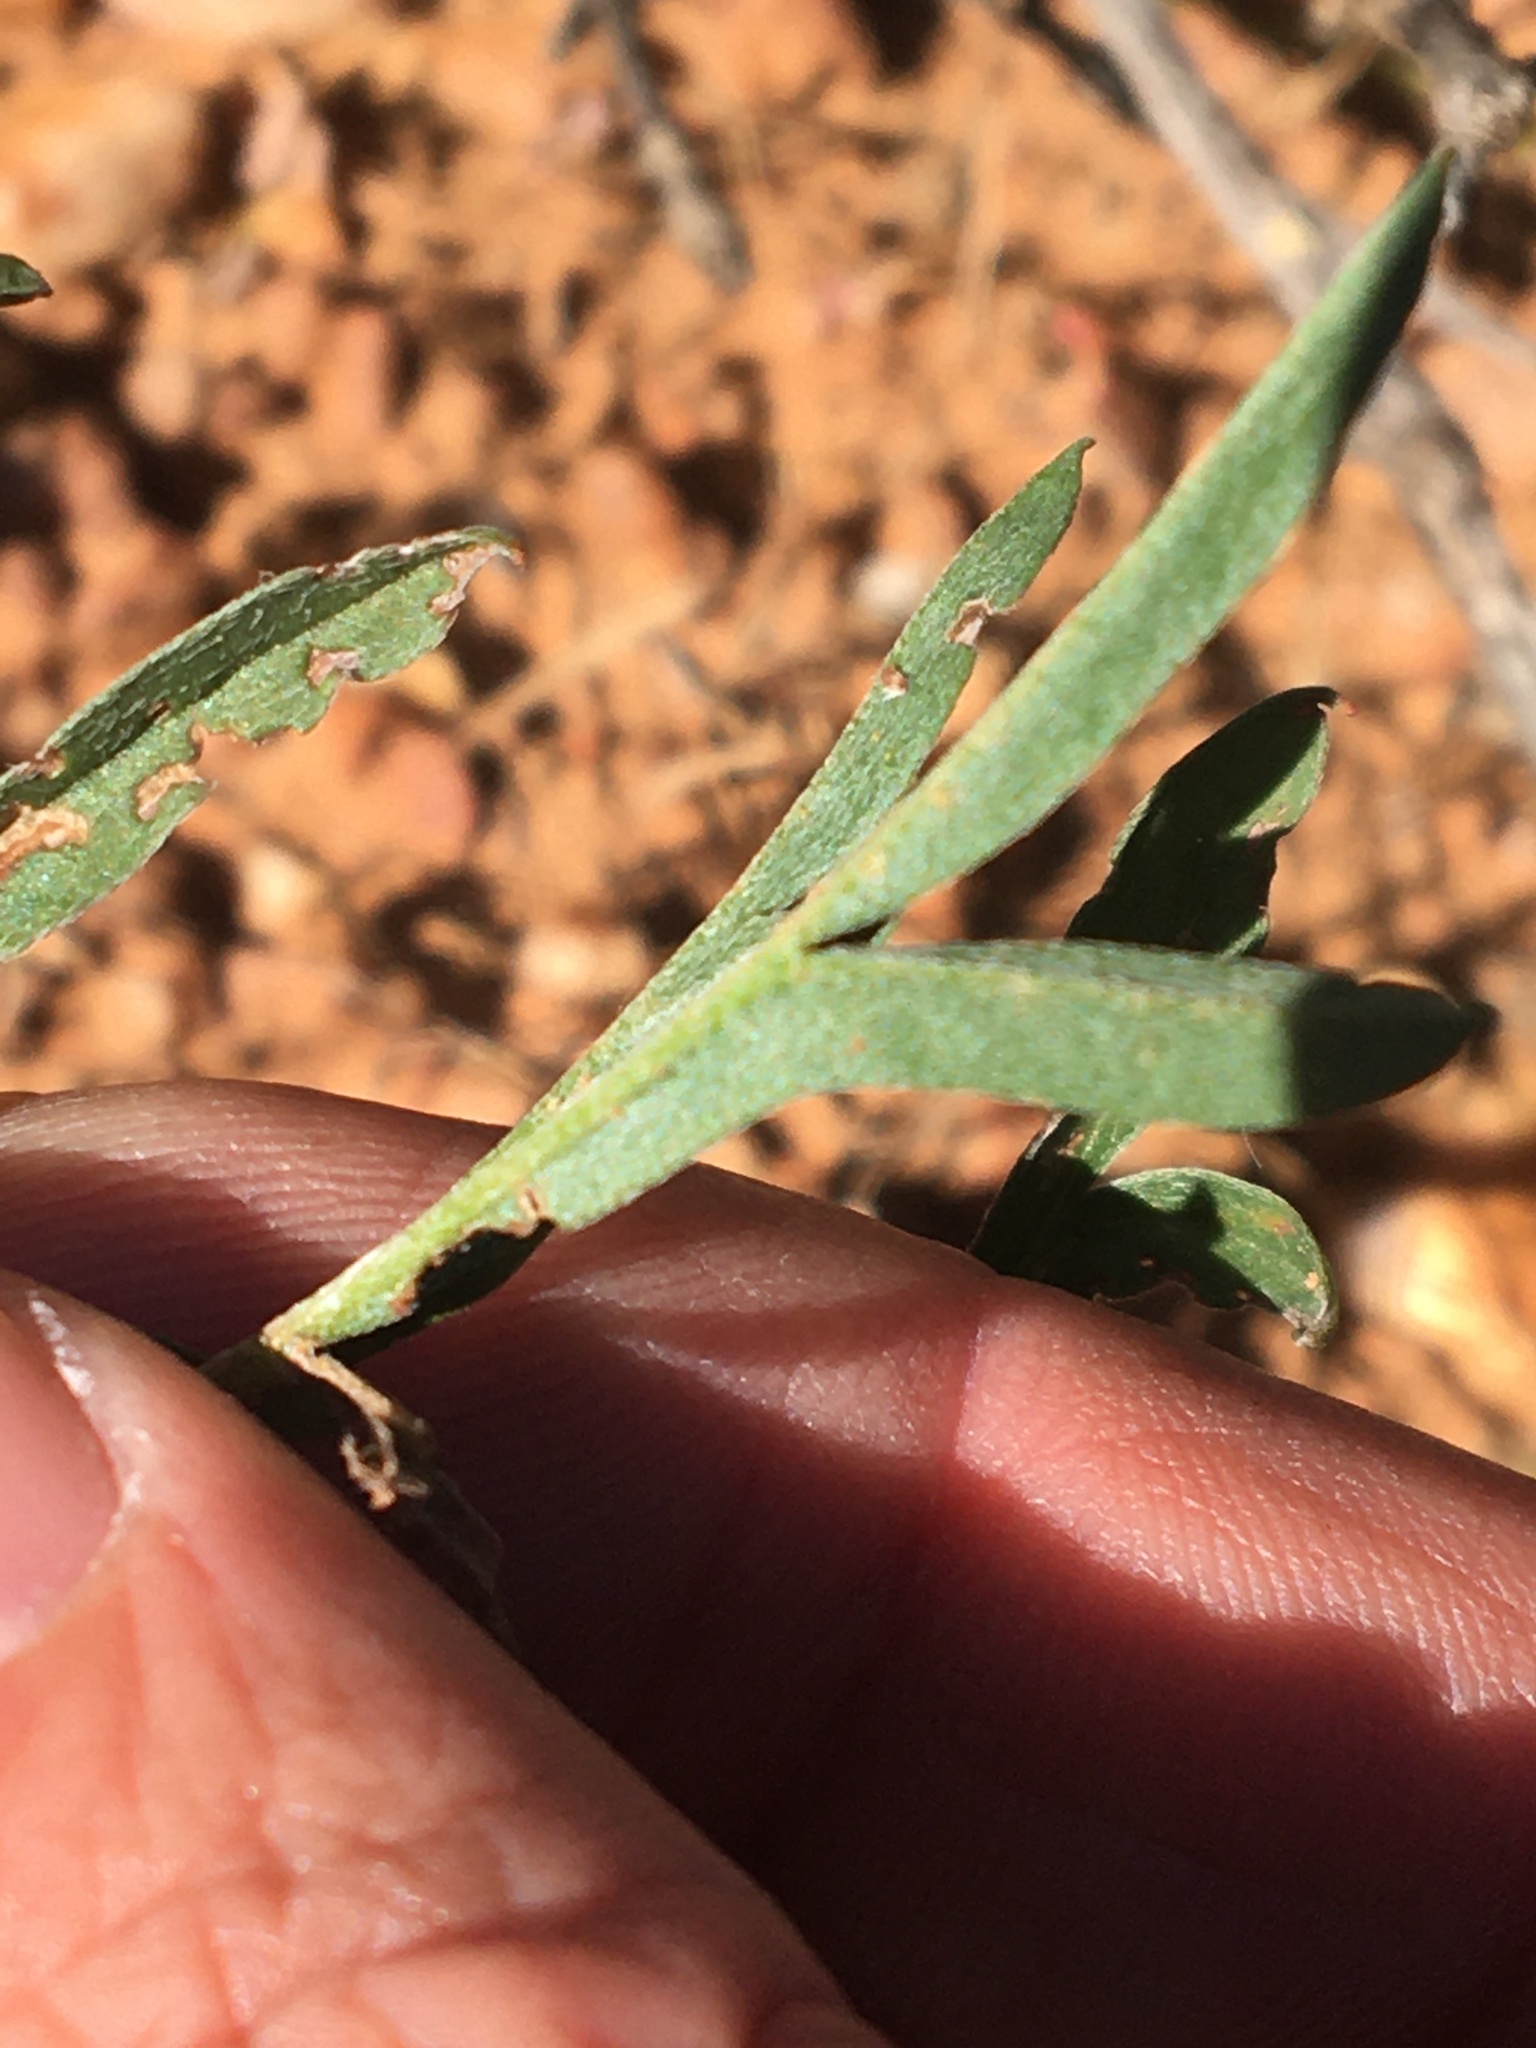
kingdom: Plantae
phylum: Tracheophyta
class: Magnoliopsida
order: Geraniales
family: Geraniaceae
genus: Pelargonium
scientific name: Pelargonium luteolum
